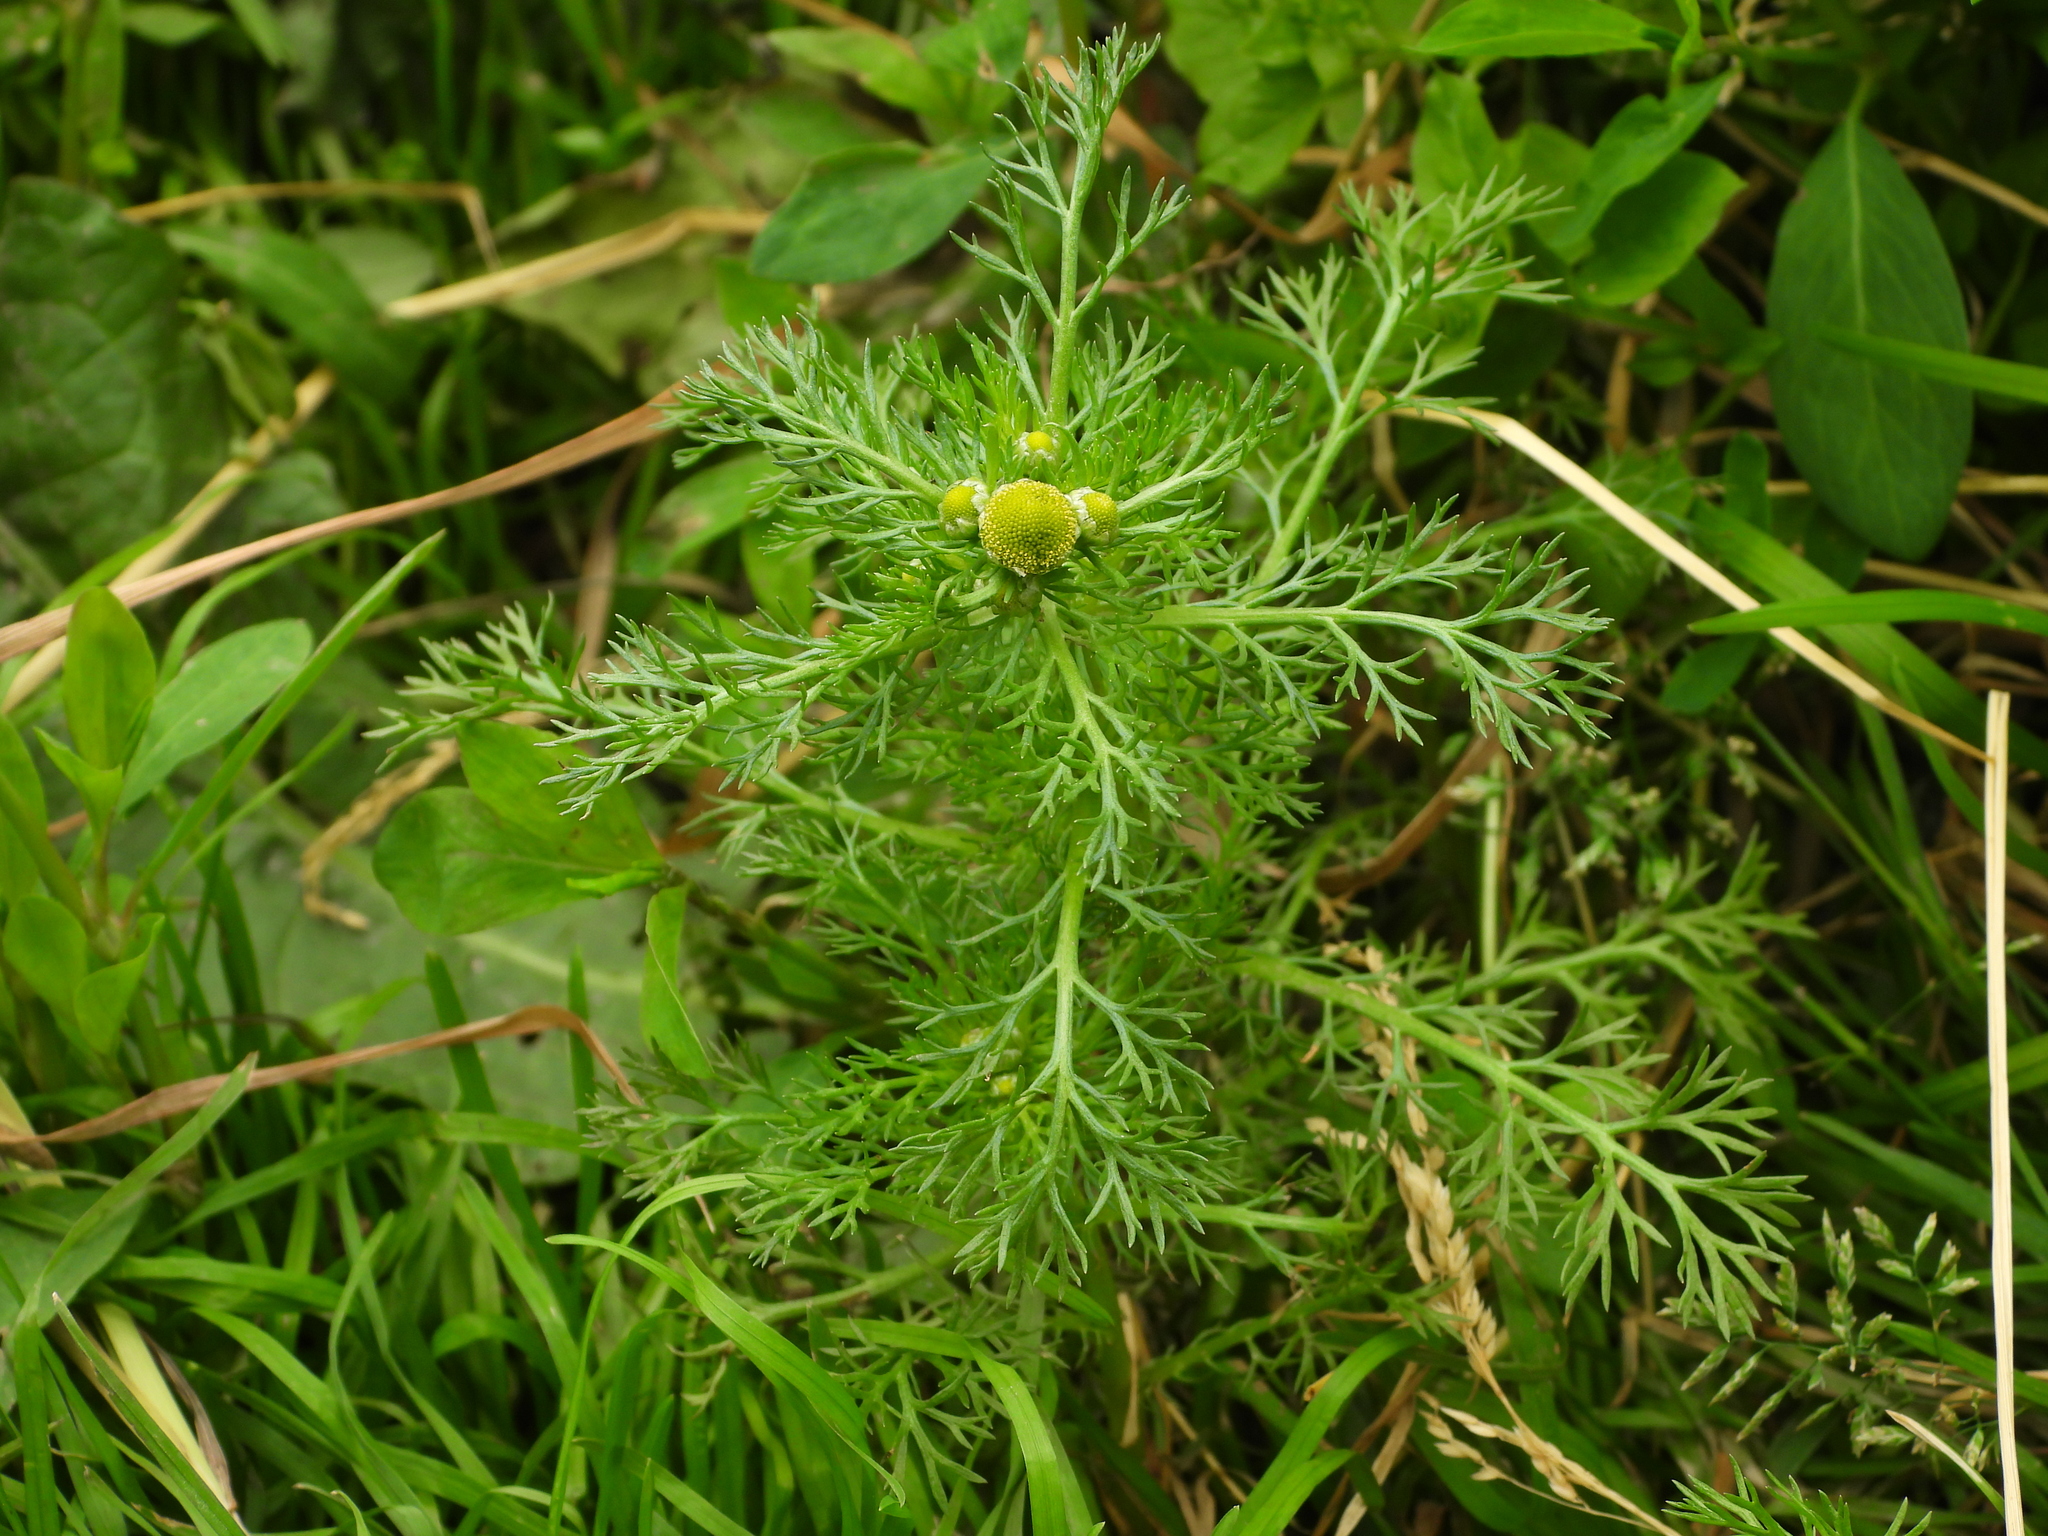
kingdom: Plantae
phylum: Tracheophyta
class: Magnoliopsida
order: Asterales
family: Asteraceae
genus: Matricaria
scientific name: Matricaria discoidea
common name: Disc mayweed
